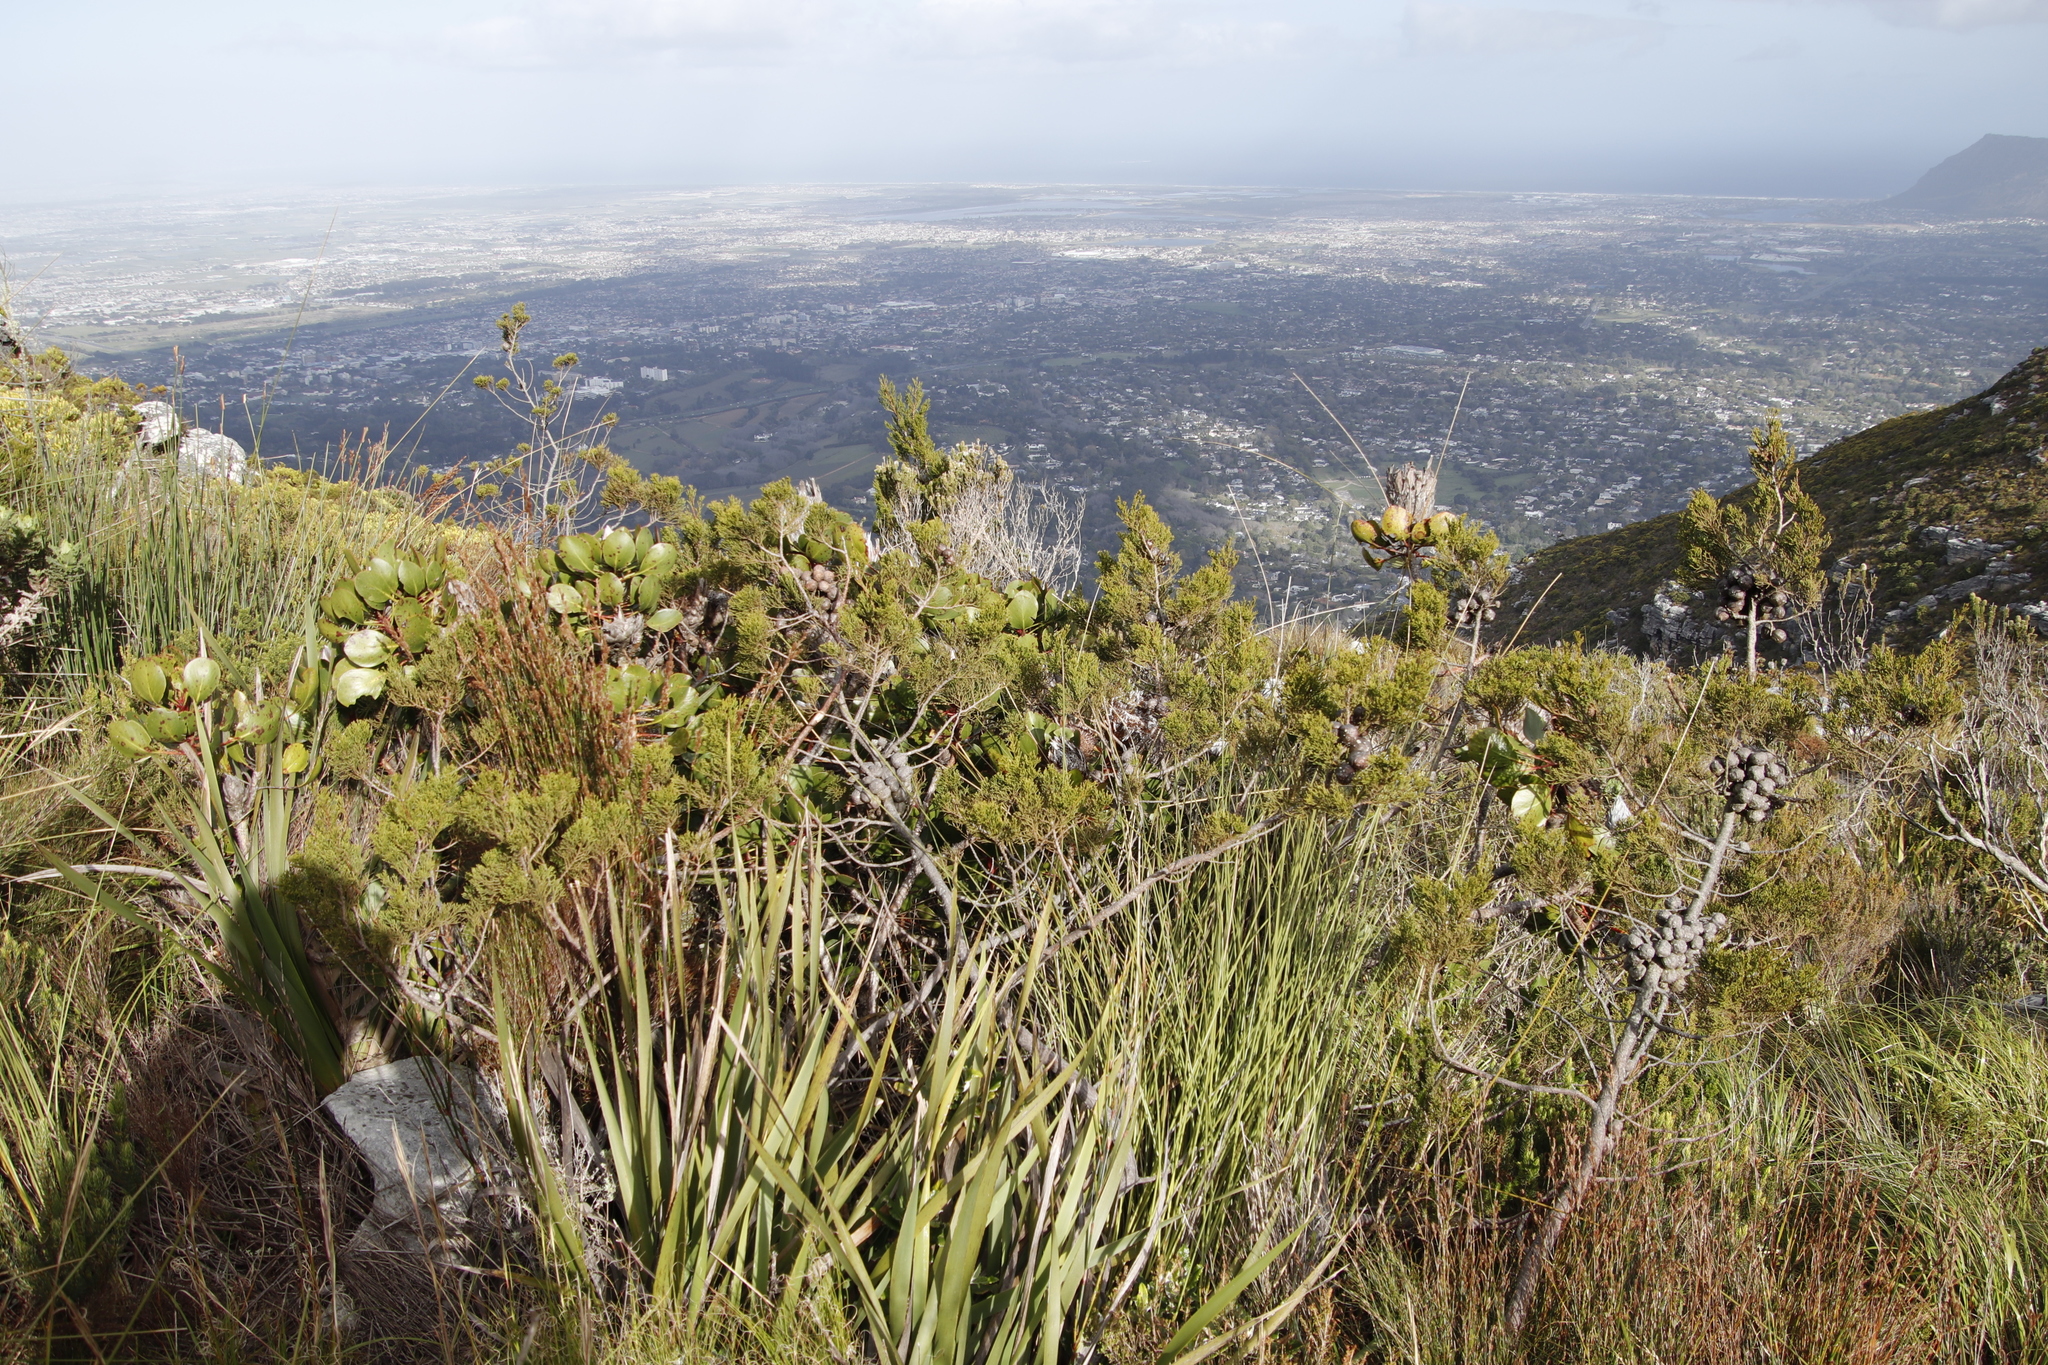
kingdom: Plantae
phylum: Tracheophyta
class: Magnoliopsida
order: Proteales
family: Proteaceae
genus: Protea
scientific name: Protea cynaroides
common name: King protea
